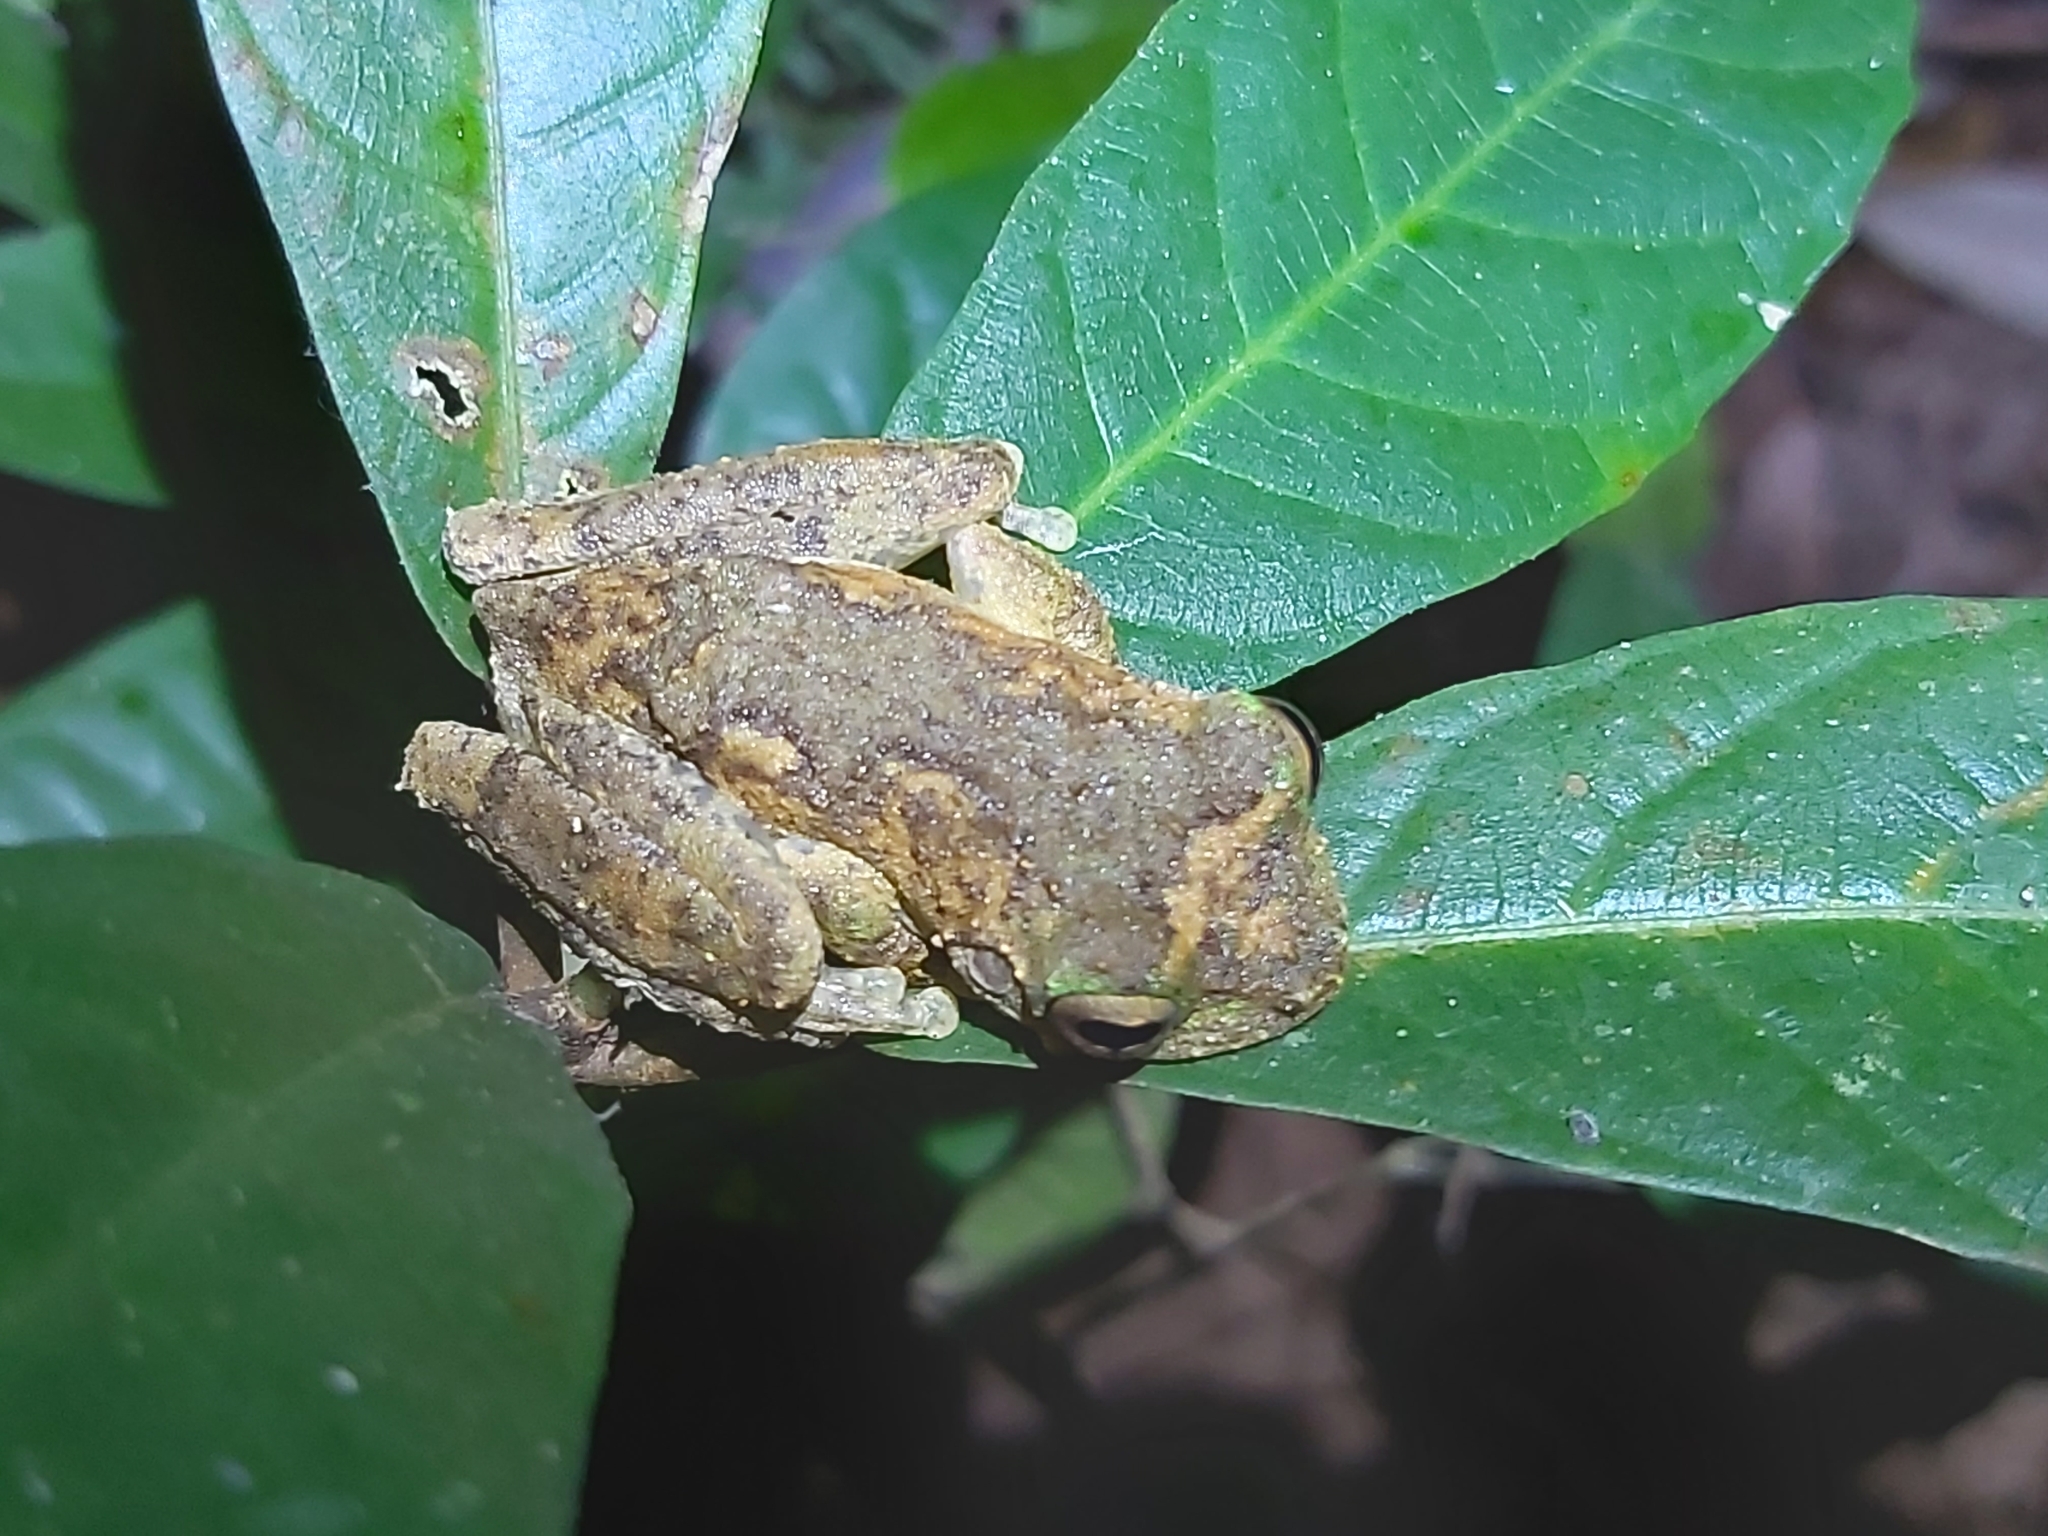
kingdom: Animalia
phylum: Chordata
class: Amphibia
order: Anura
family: Pelodryadidae
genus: Ranoidea
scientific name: Ranoidea serrata
